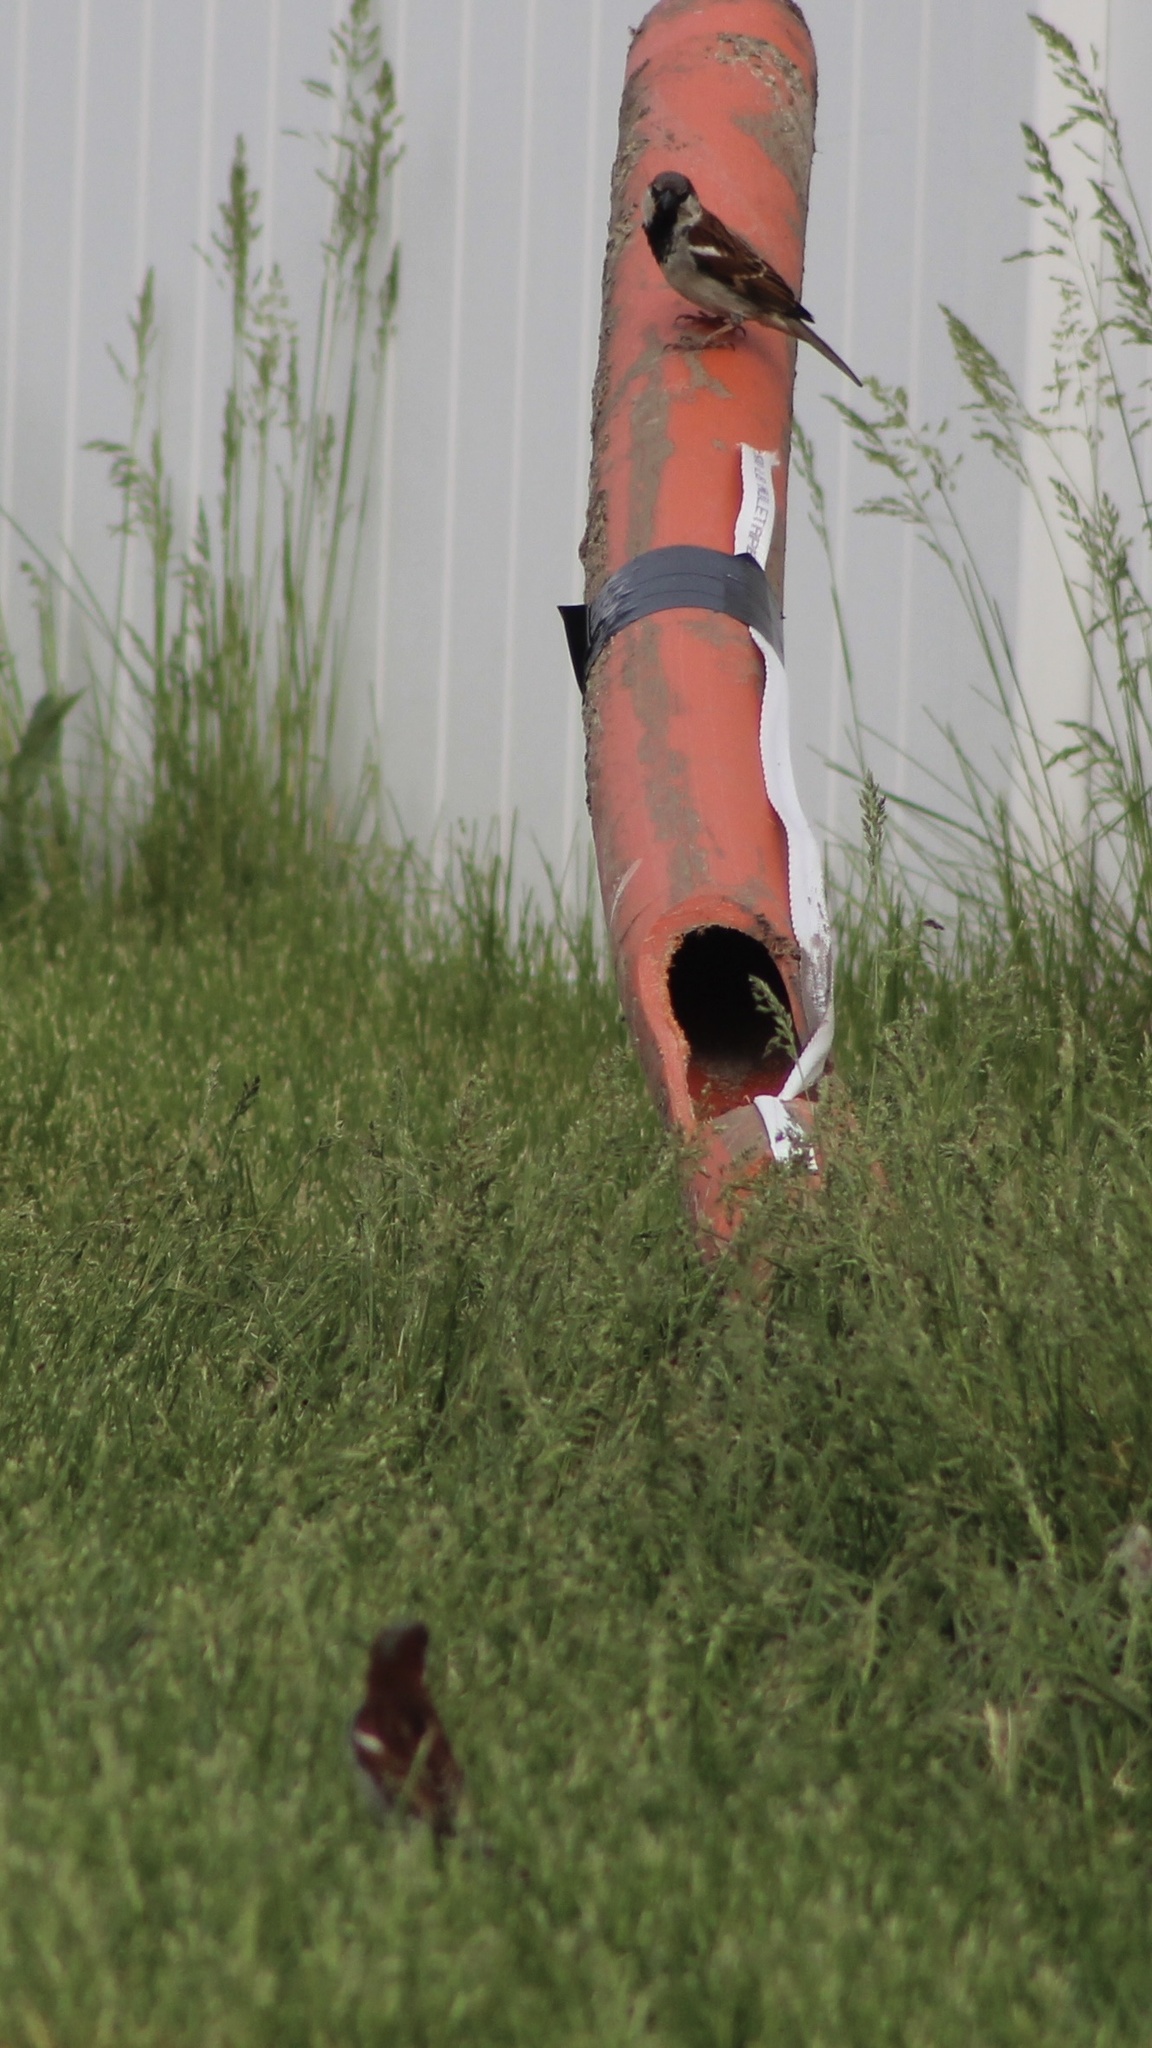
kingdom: Animalia
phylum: Chordata
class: Aves
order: Passeriformes
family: Passeridae
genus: Passer
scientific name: Passer domesticus
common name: House sparrow
